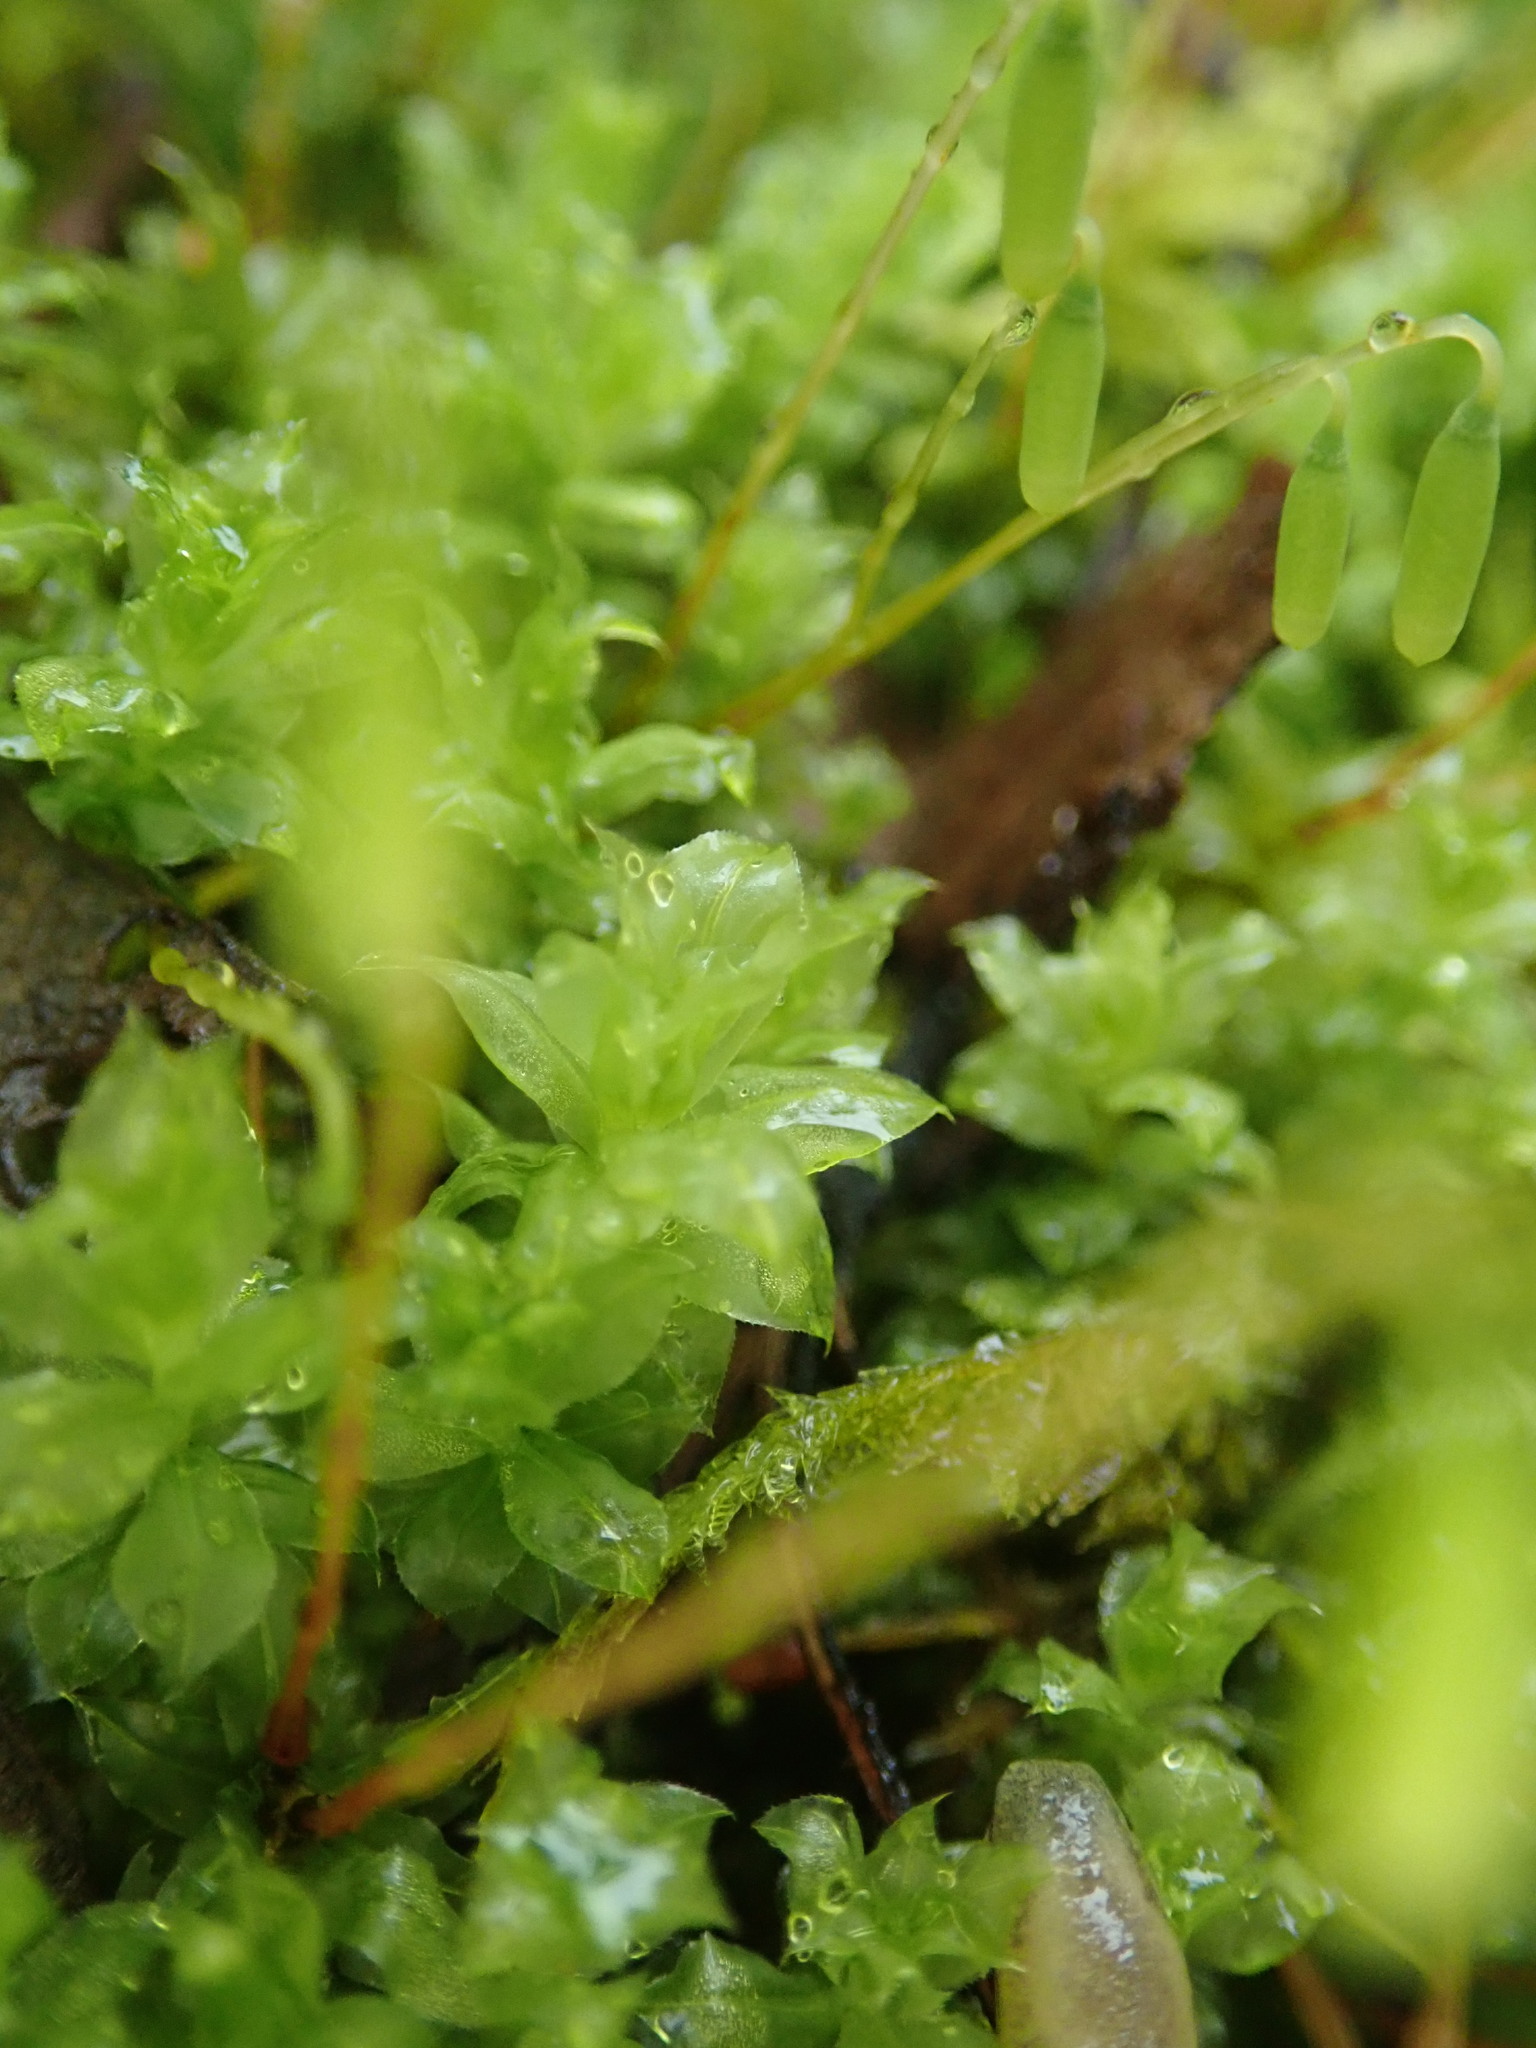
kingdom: Plantae
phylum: Bryophyta
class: Bryopsida
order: Bryales
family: Mniaceae
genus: Plagiomnium
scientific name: Plagiomnium venustum
